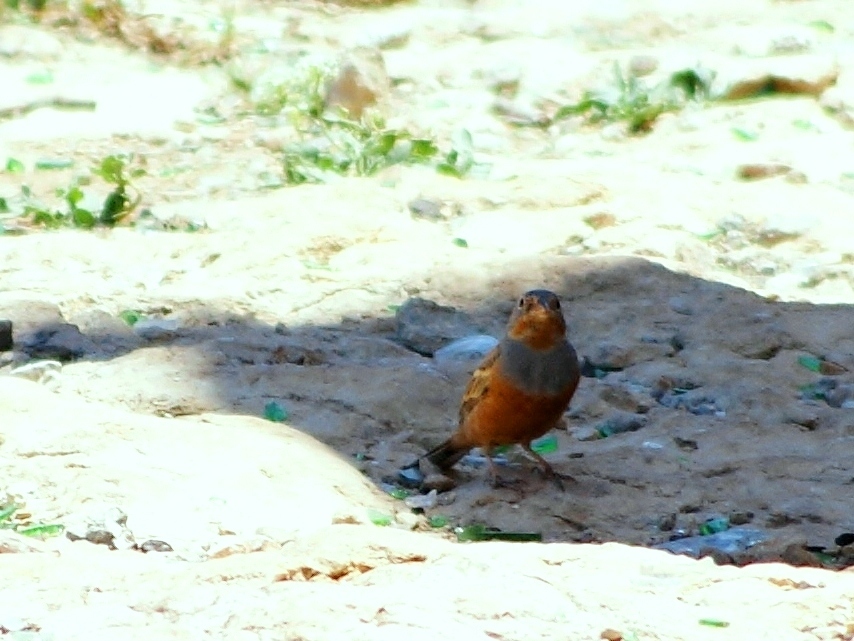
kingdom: Animalia
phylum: Chordata
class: Aves
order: Passeriformes
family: Emberizidae
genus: Emberiza
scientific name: Emberiza caesia
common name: Cretzschmar's bunting
